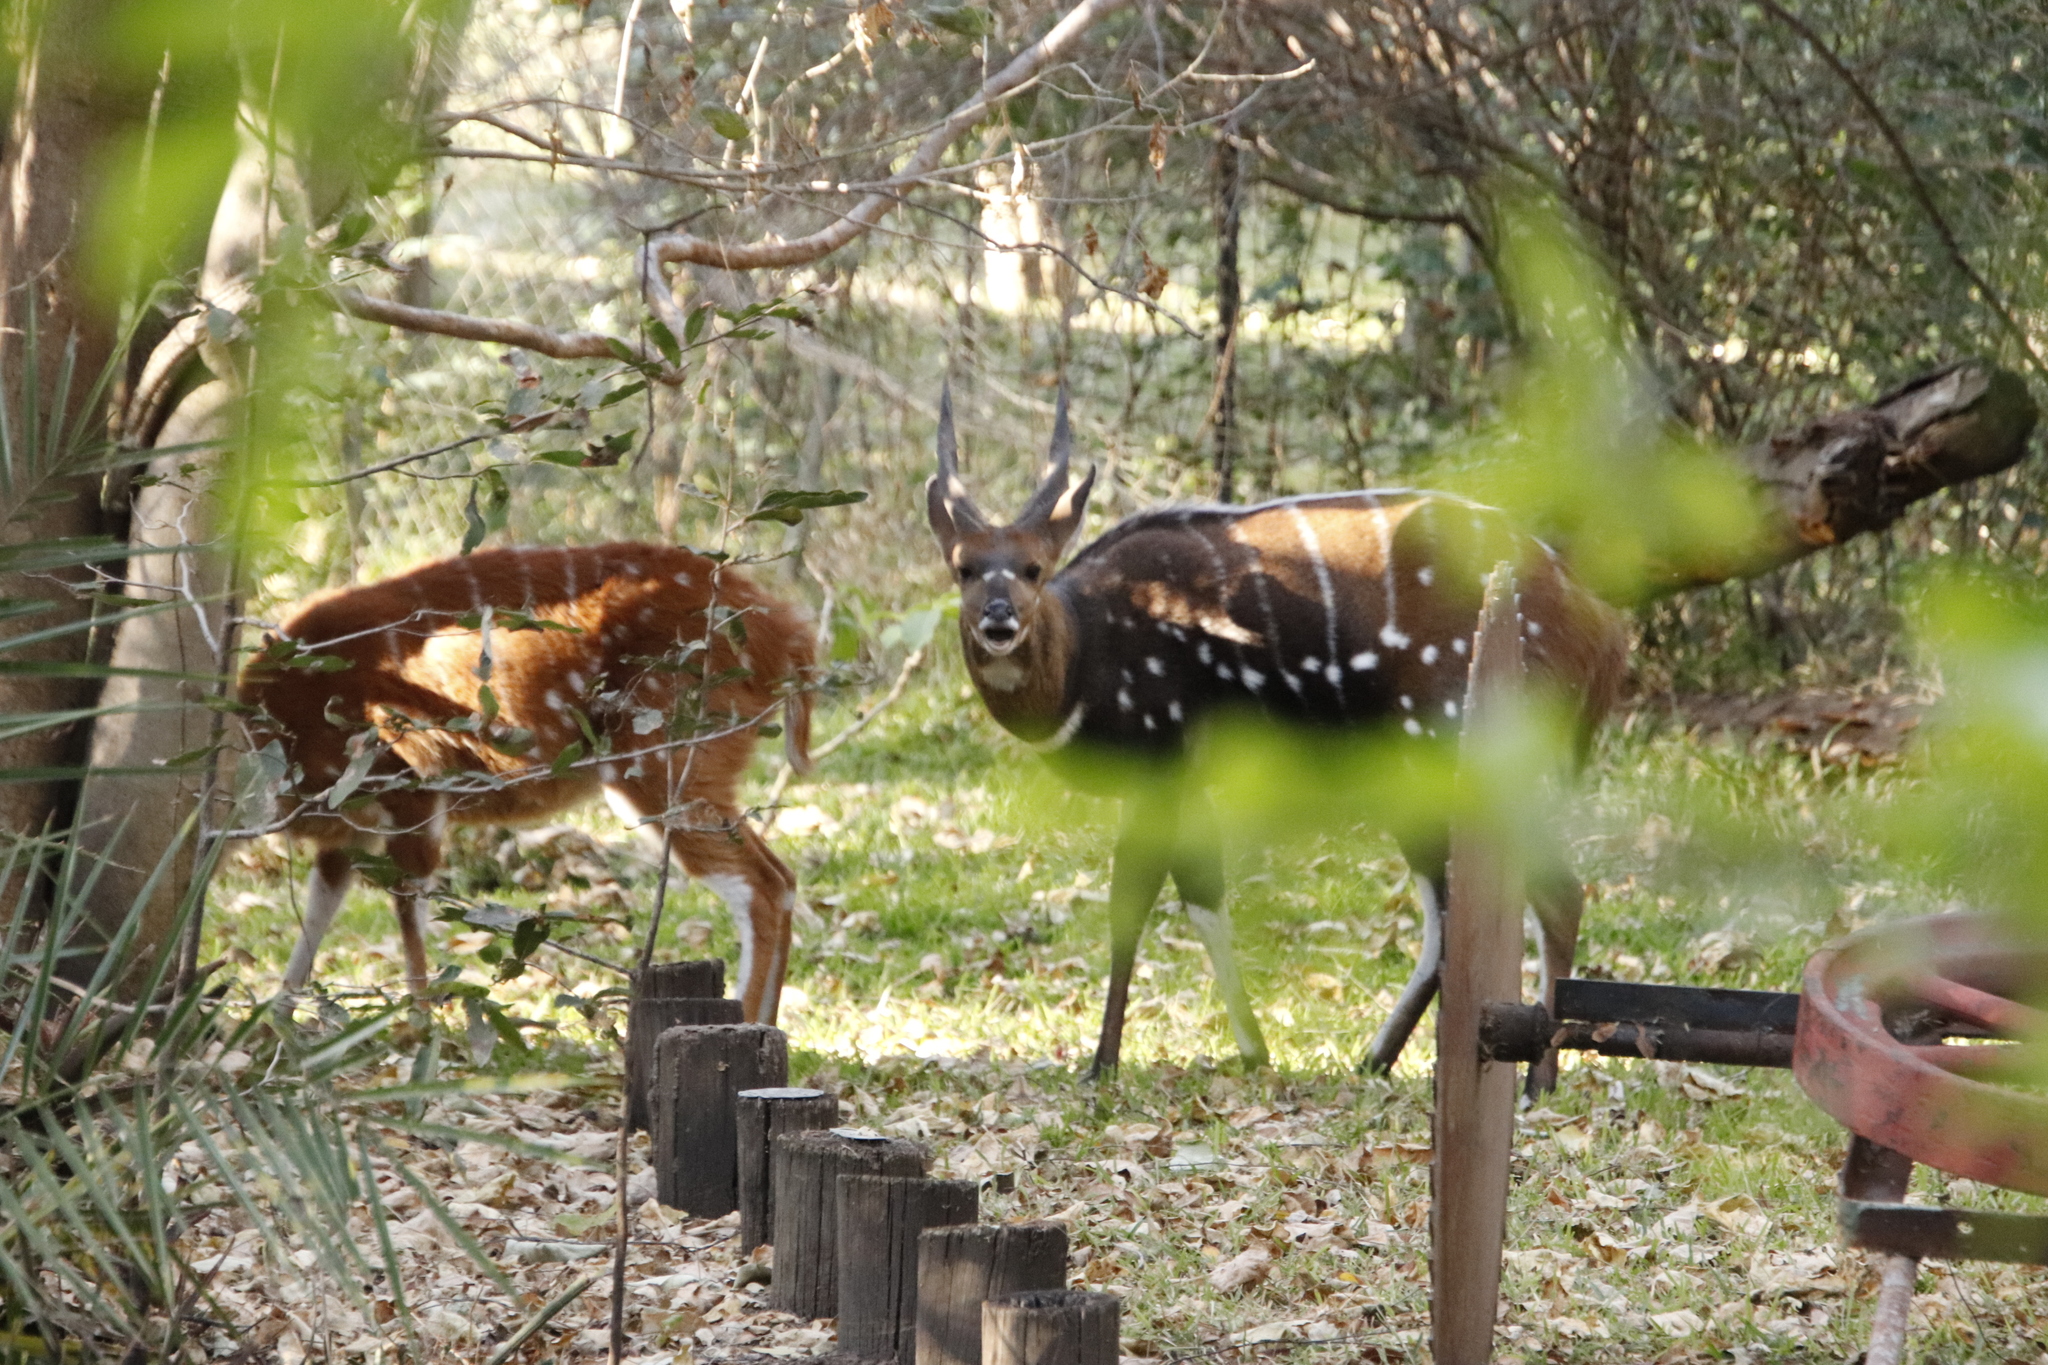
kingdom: Animalia
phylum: Chordata
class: Mammalia
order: Artiodactyla
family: Bovidae
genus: Tragelaphus
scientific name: Tragelaphus scriptus
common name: Bushbuck
